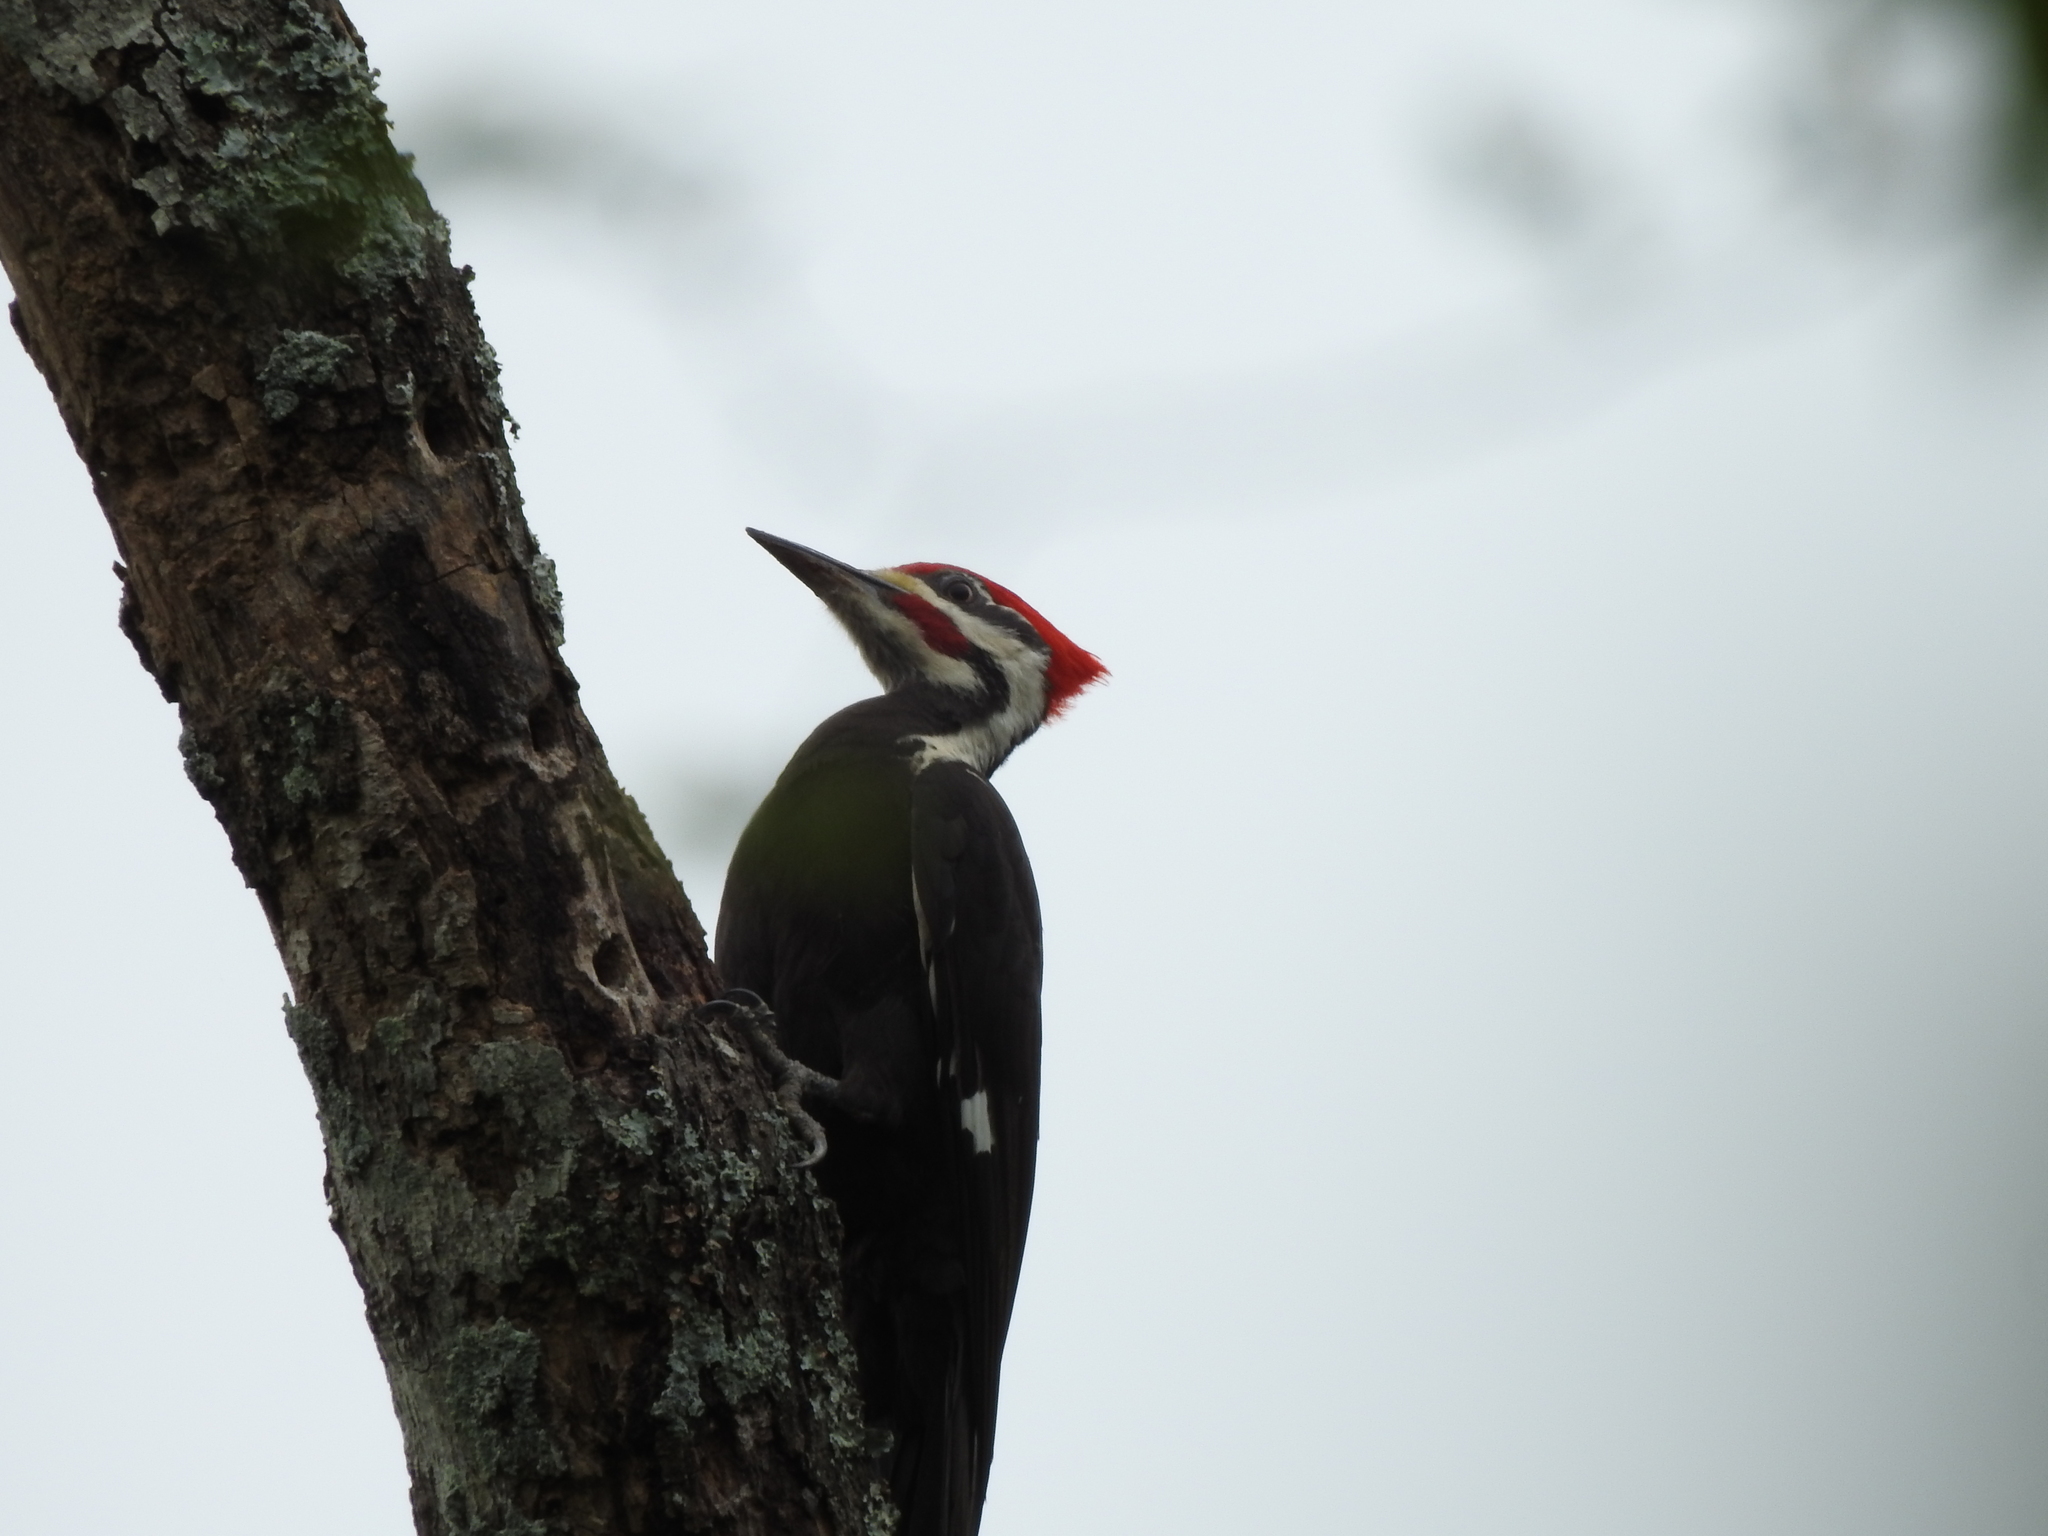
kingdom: Animalia
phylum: Chordata
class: Aves
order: Piciformes
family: Picidae
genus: Dryocopus
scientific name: Dryocopus pileatus
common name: Pileated woodpecker
